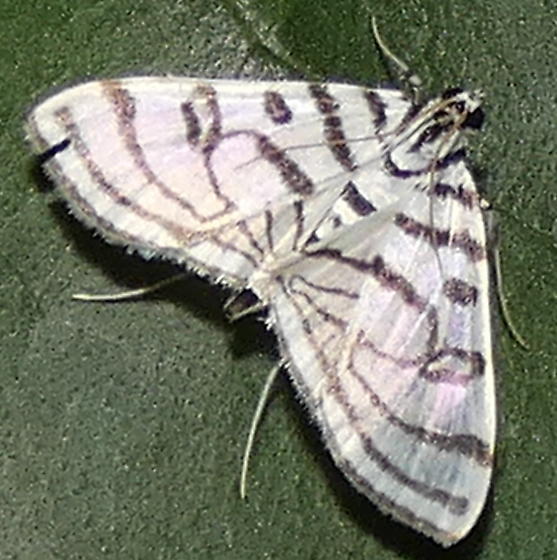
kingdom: Animalia
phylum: Arthropoda
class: Insecta
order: Lepidoptera
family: Crambidae
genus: Conchylodes
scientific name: Conchylodes ovulalis
